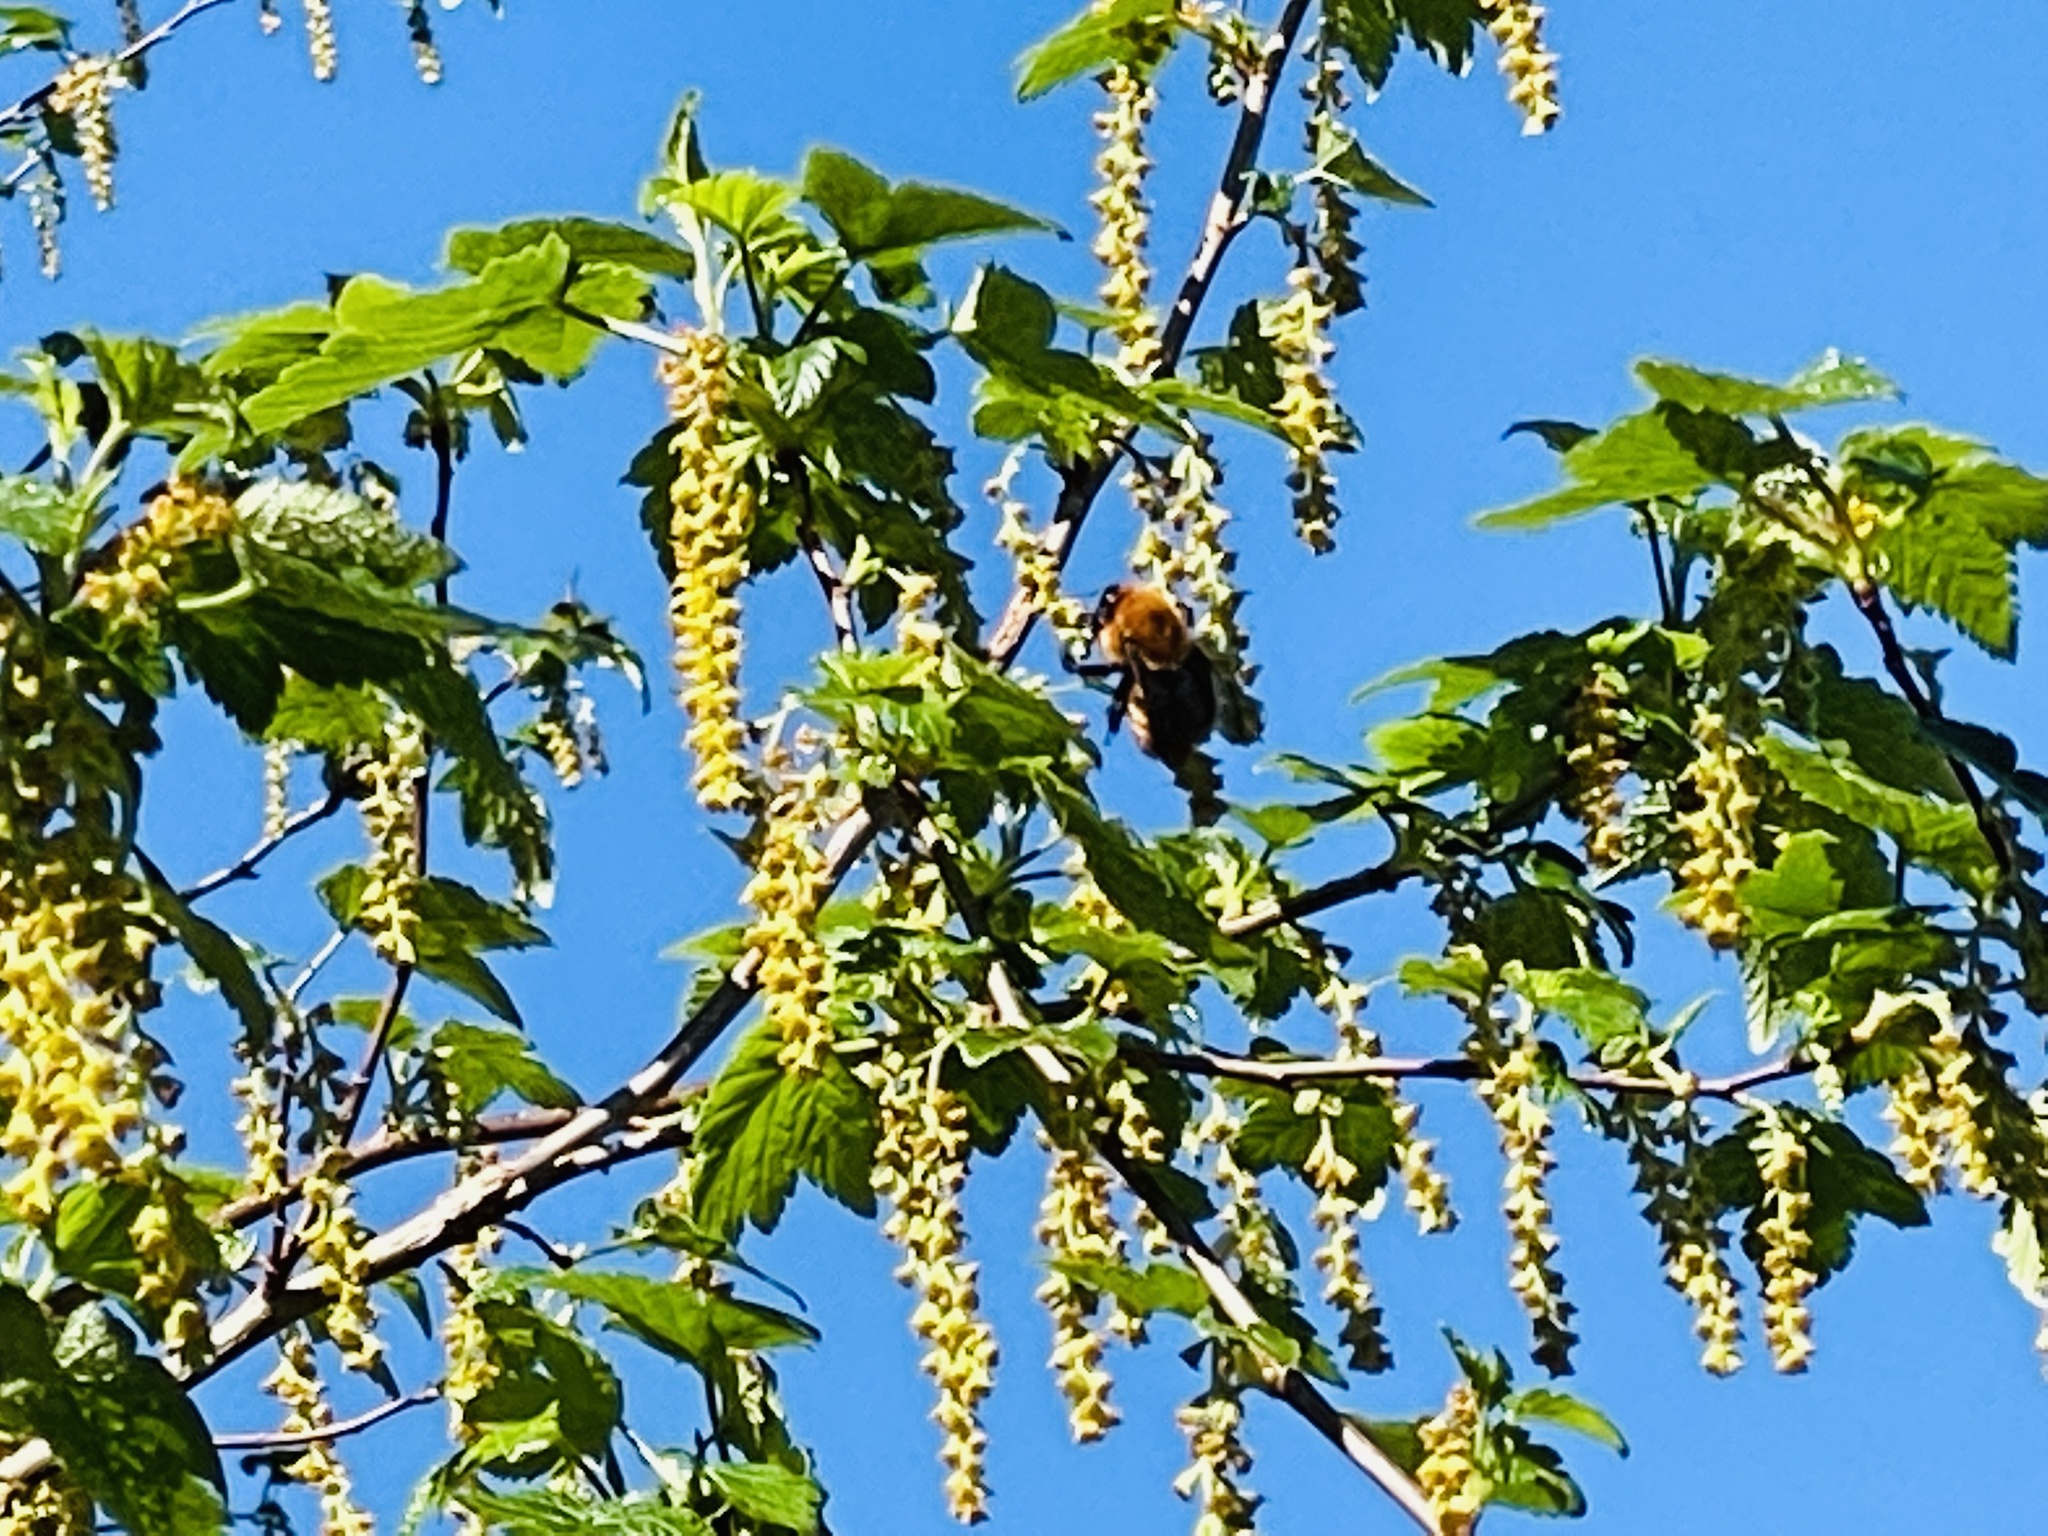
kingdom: Animalia
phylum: Arthropoda
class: Insecta
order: Hymenoptera
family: Apidae
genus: Bombus
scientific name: Bombus dahlbomii
